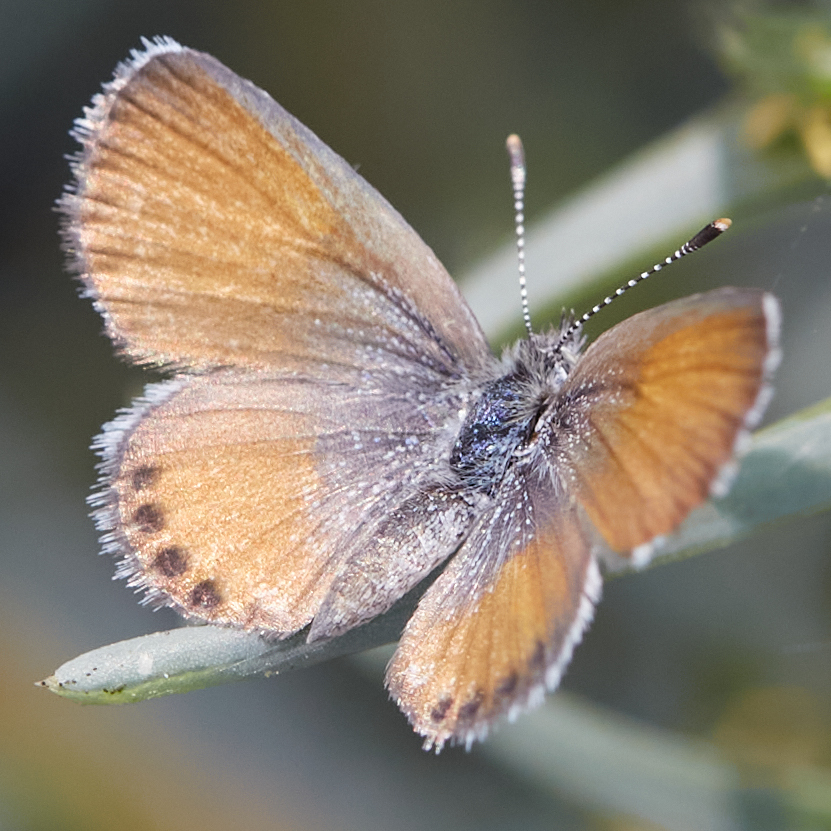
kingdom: Animalia
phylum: Arthropoda
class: Insecta
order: Lepidoptera
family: Lycaenidae
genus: Brephidium
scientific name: Brephidium exilis
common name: Pygmy blue
